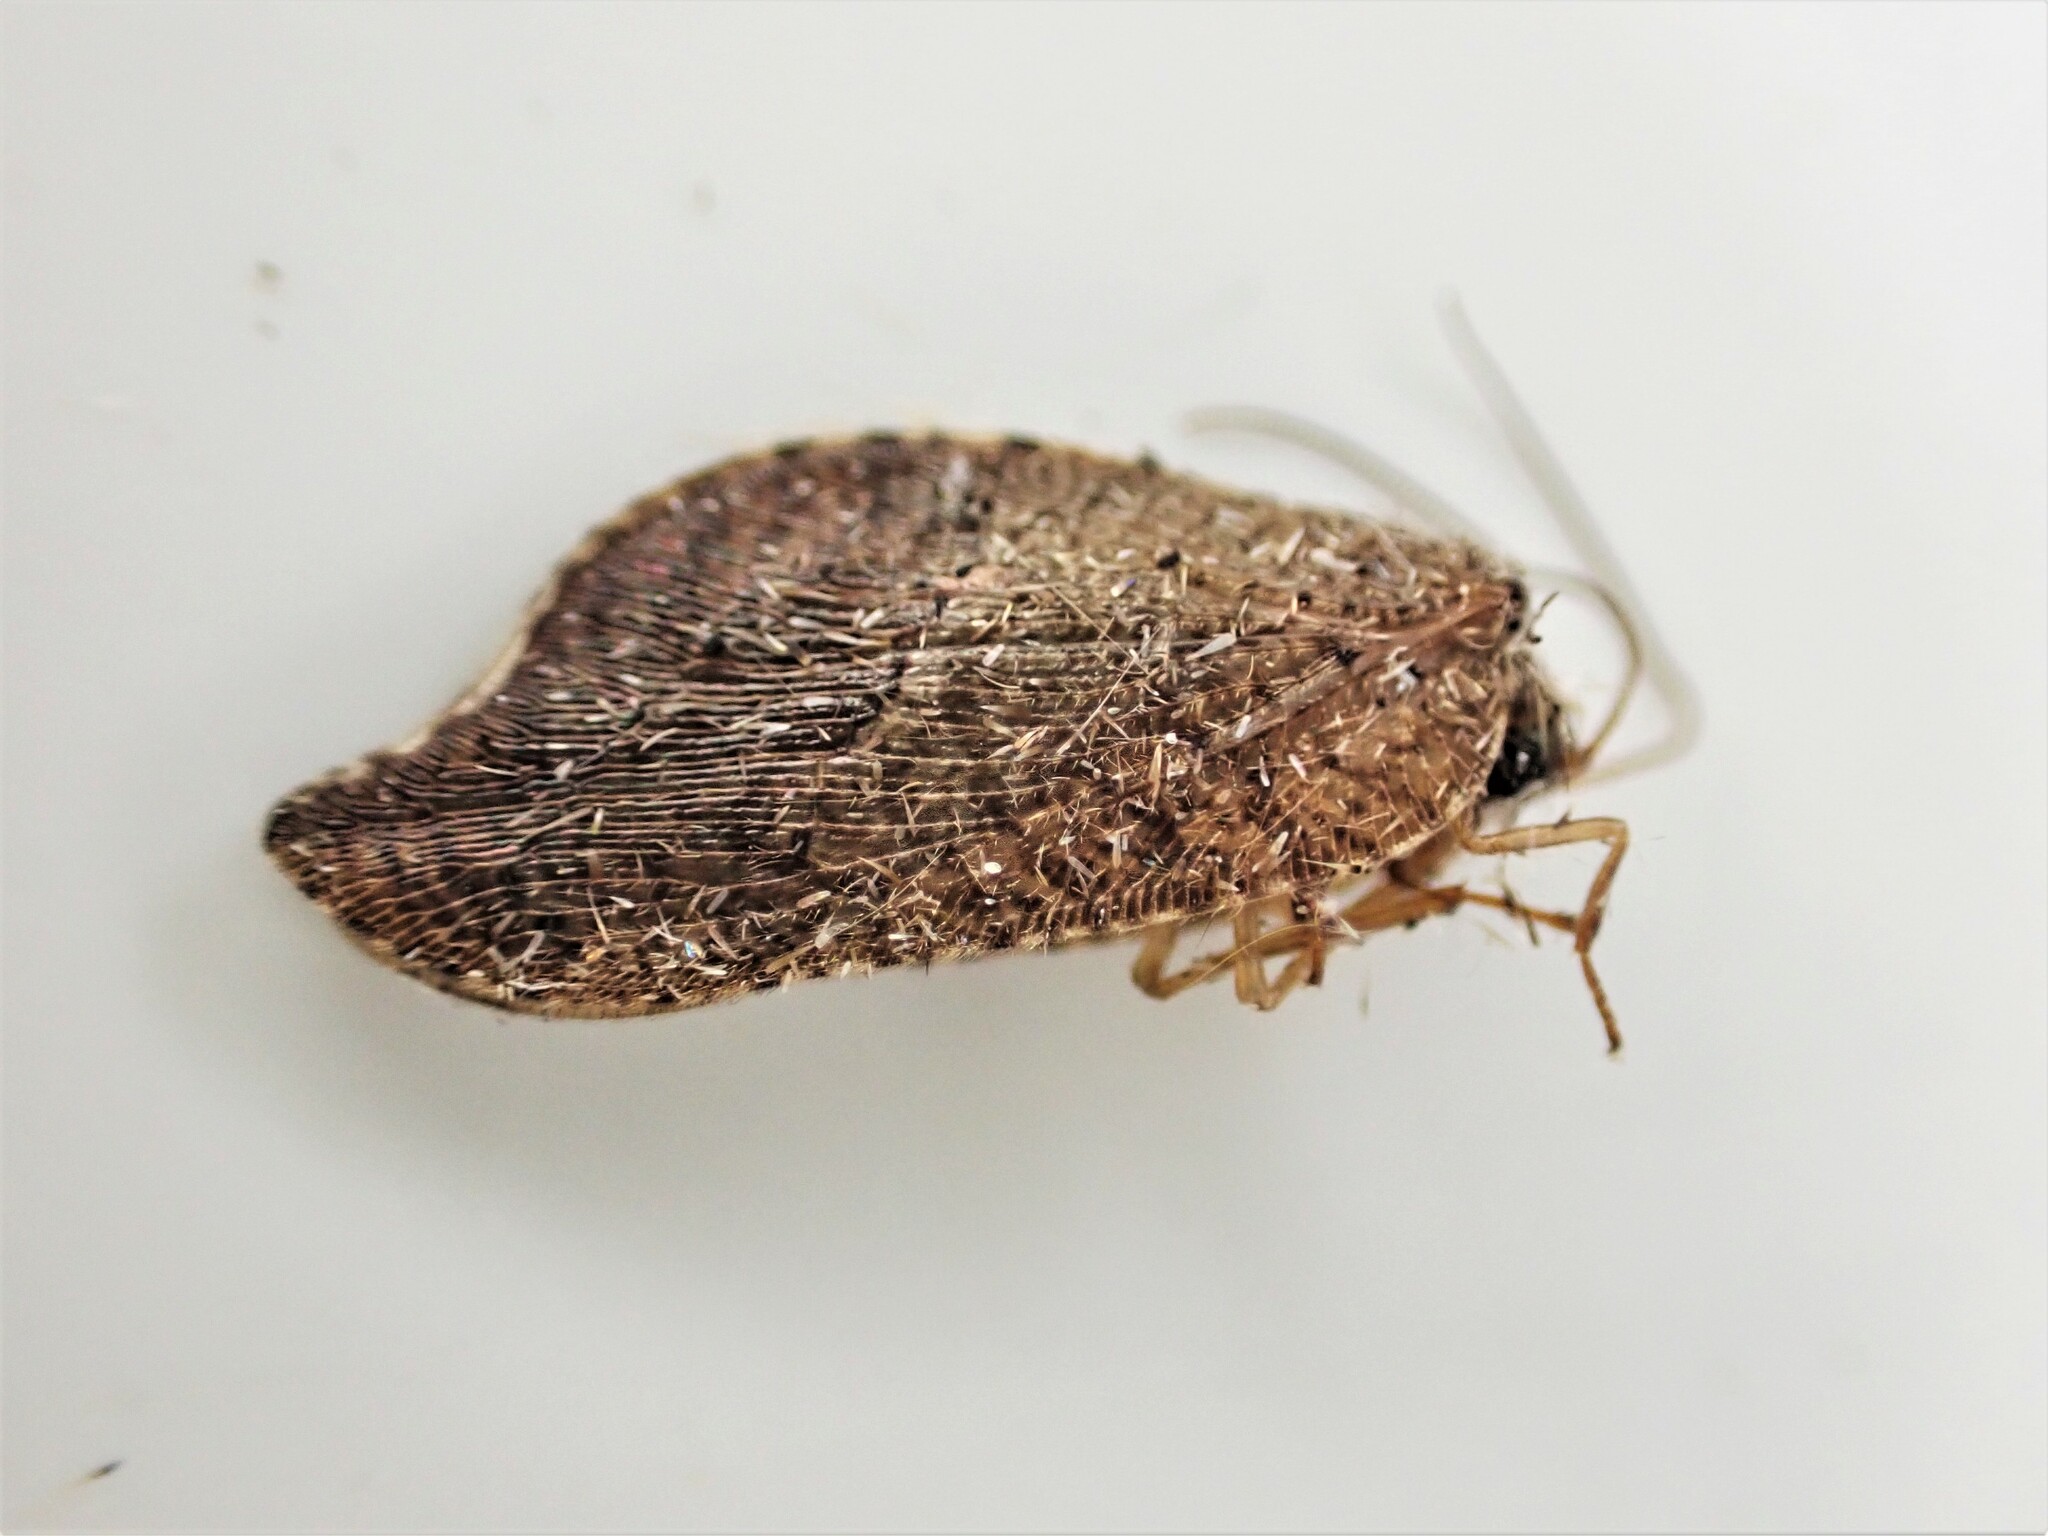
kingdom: Animalia
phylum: Arthropoda
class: Insecta
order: Neuroptera
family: Hemerobiidae
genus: Drepanacra
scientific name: Drepanacra binocula
